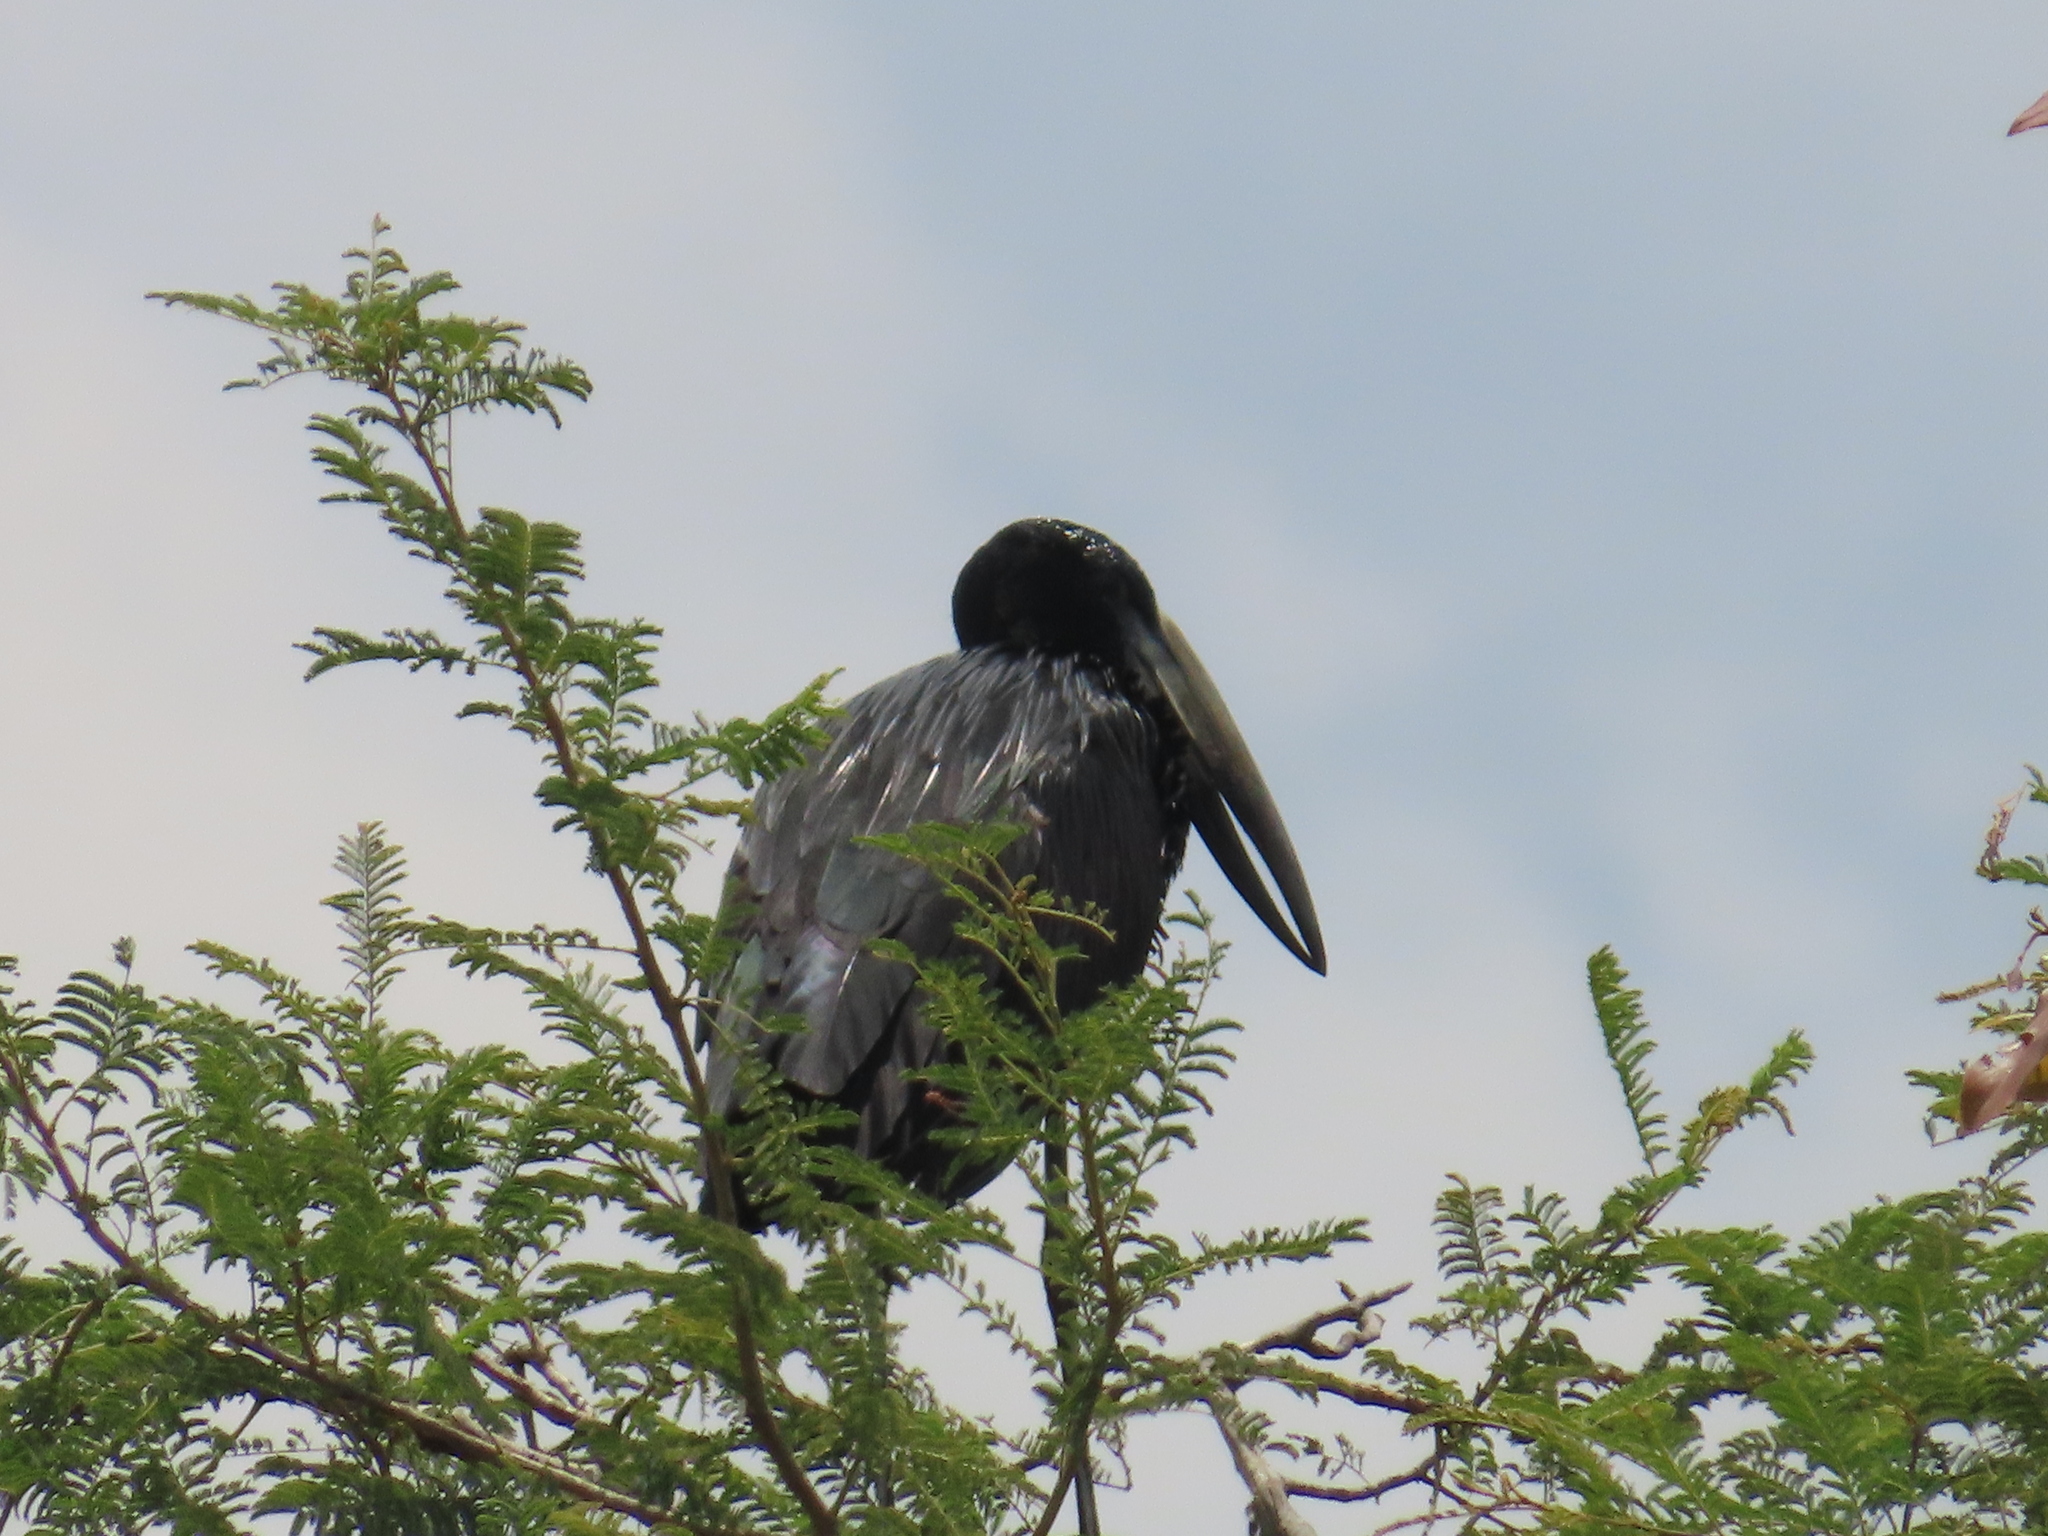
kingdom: Animalia
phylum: Chordata
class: Aves
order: Ciconiiformes
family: Ciconiidae
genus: Anastomus
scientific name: Anastomus lamelligerus
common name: African openbill
